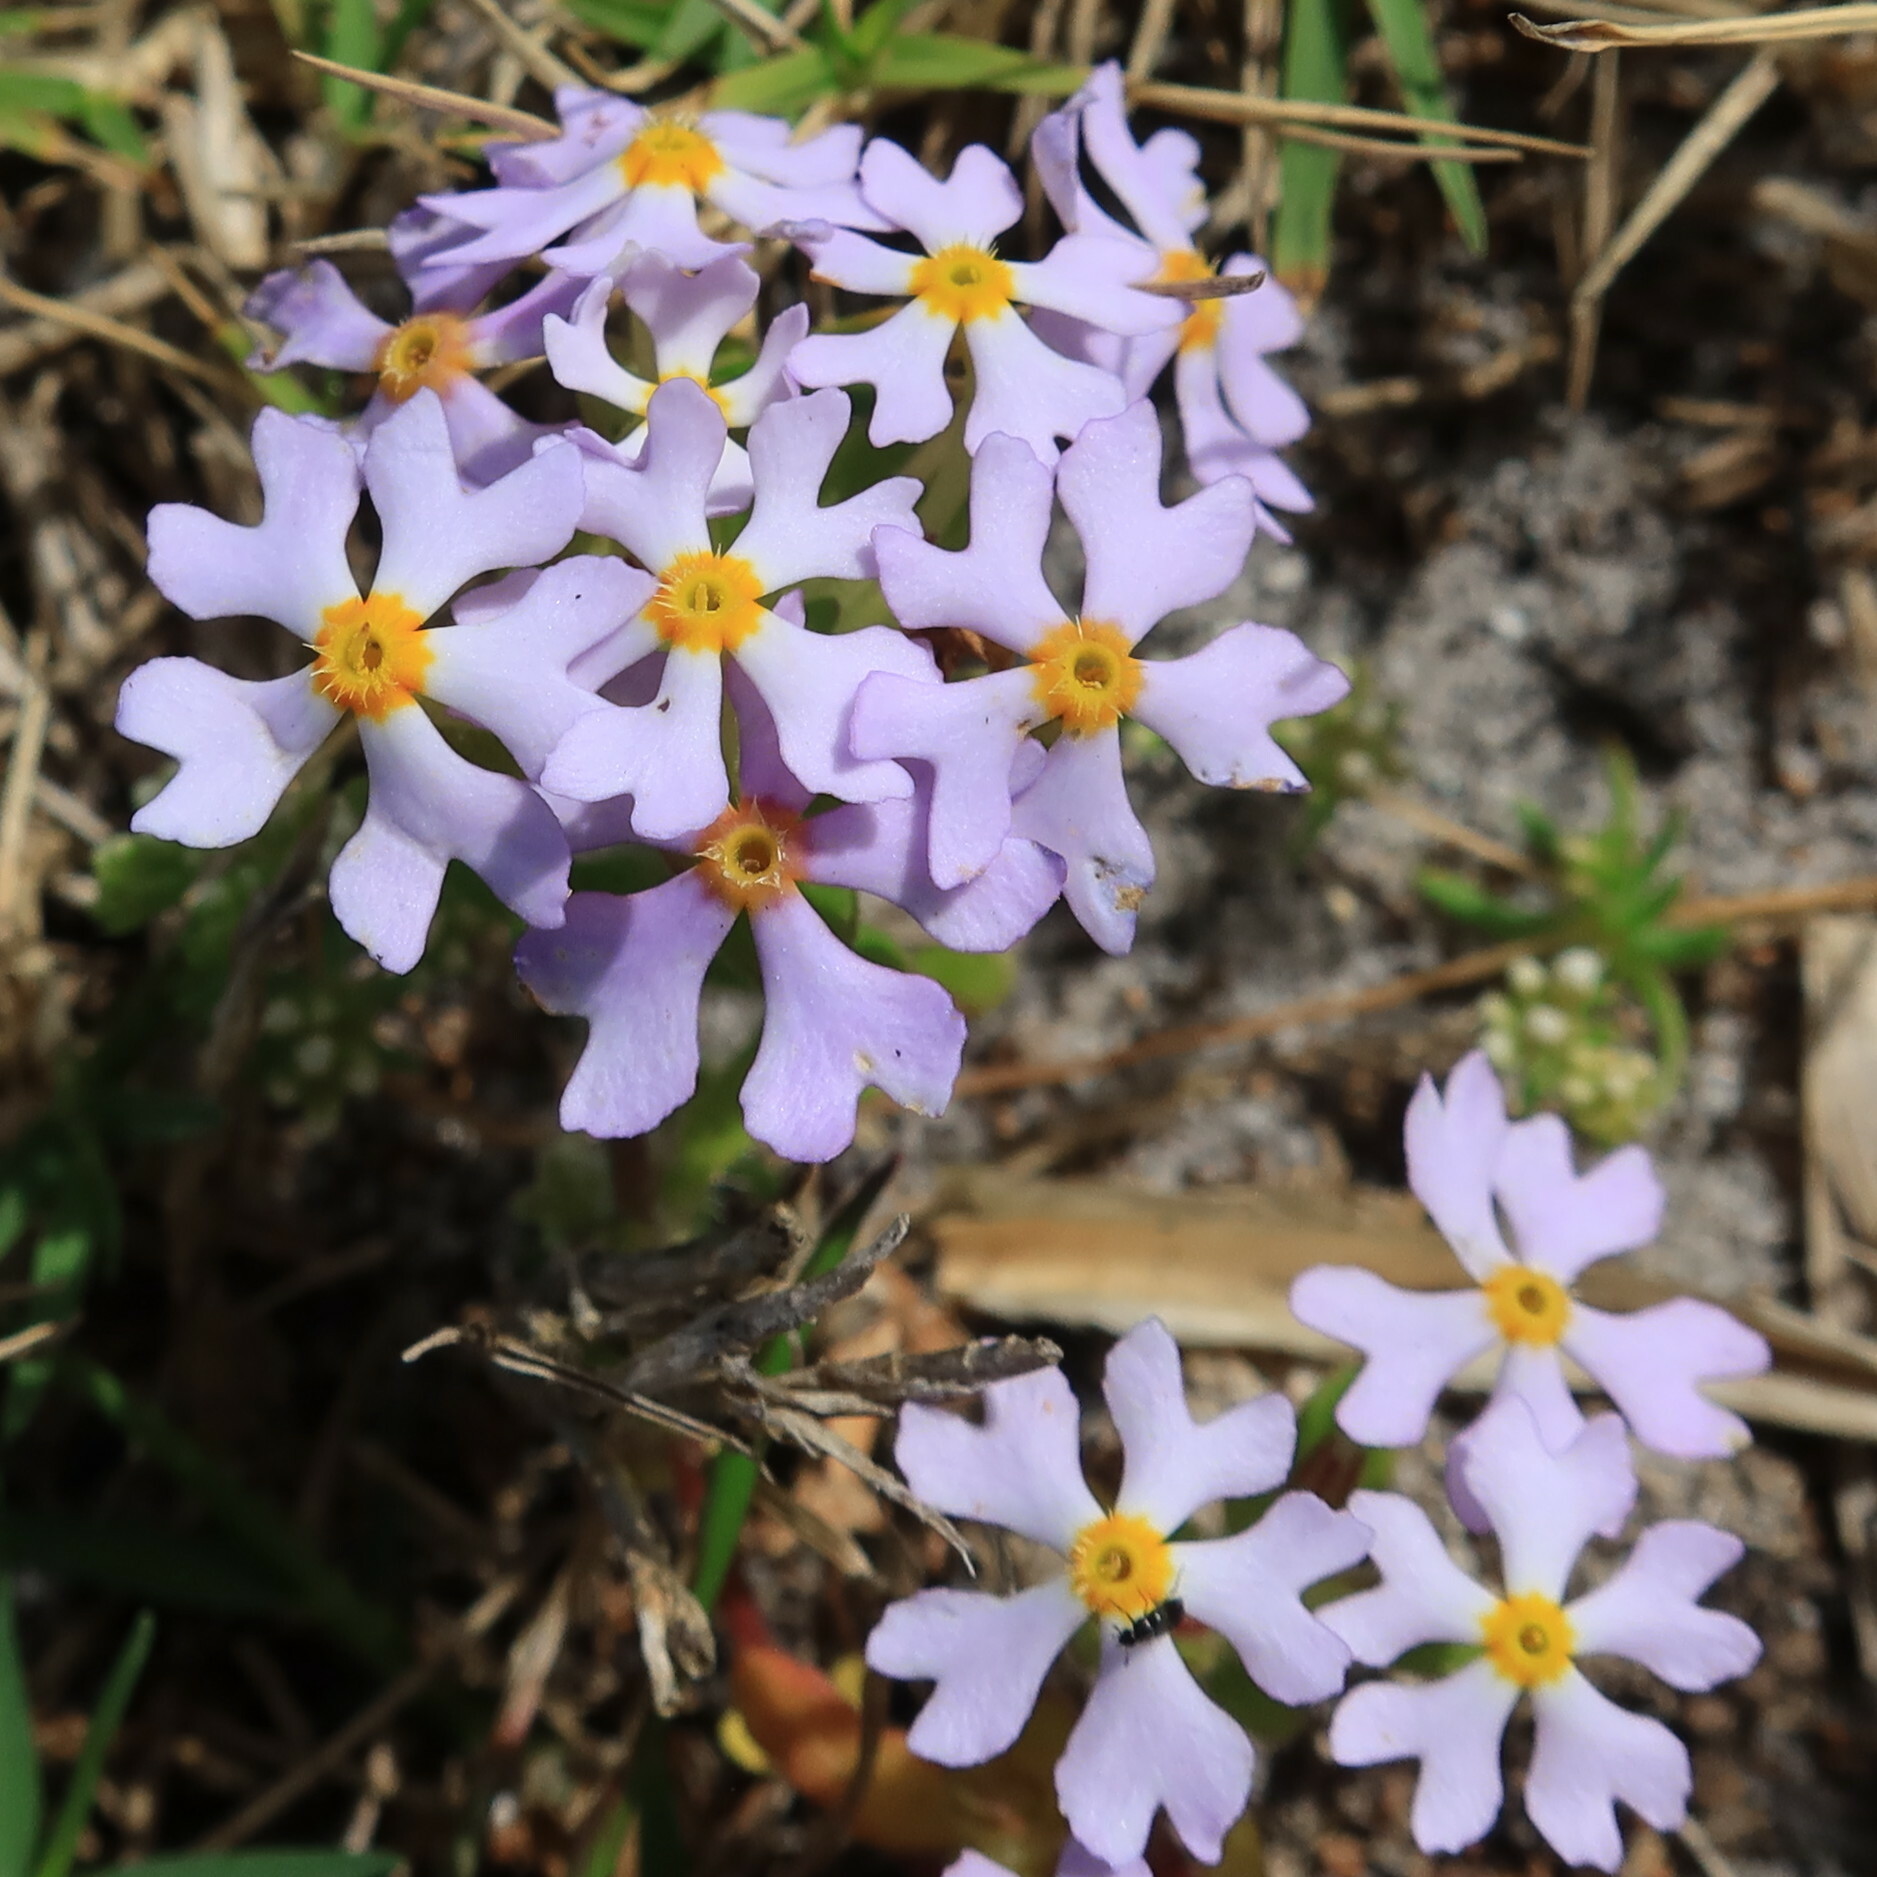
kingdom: Plantae
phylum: Tracheophyta
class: Magnoliopsida
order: Lamiales
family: Scrophulariaceae
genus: Zaluzianskya
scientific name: Zaluzianskya villosa
